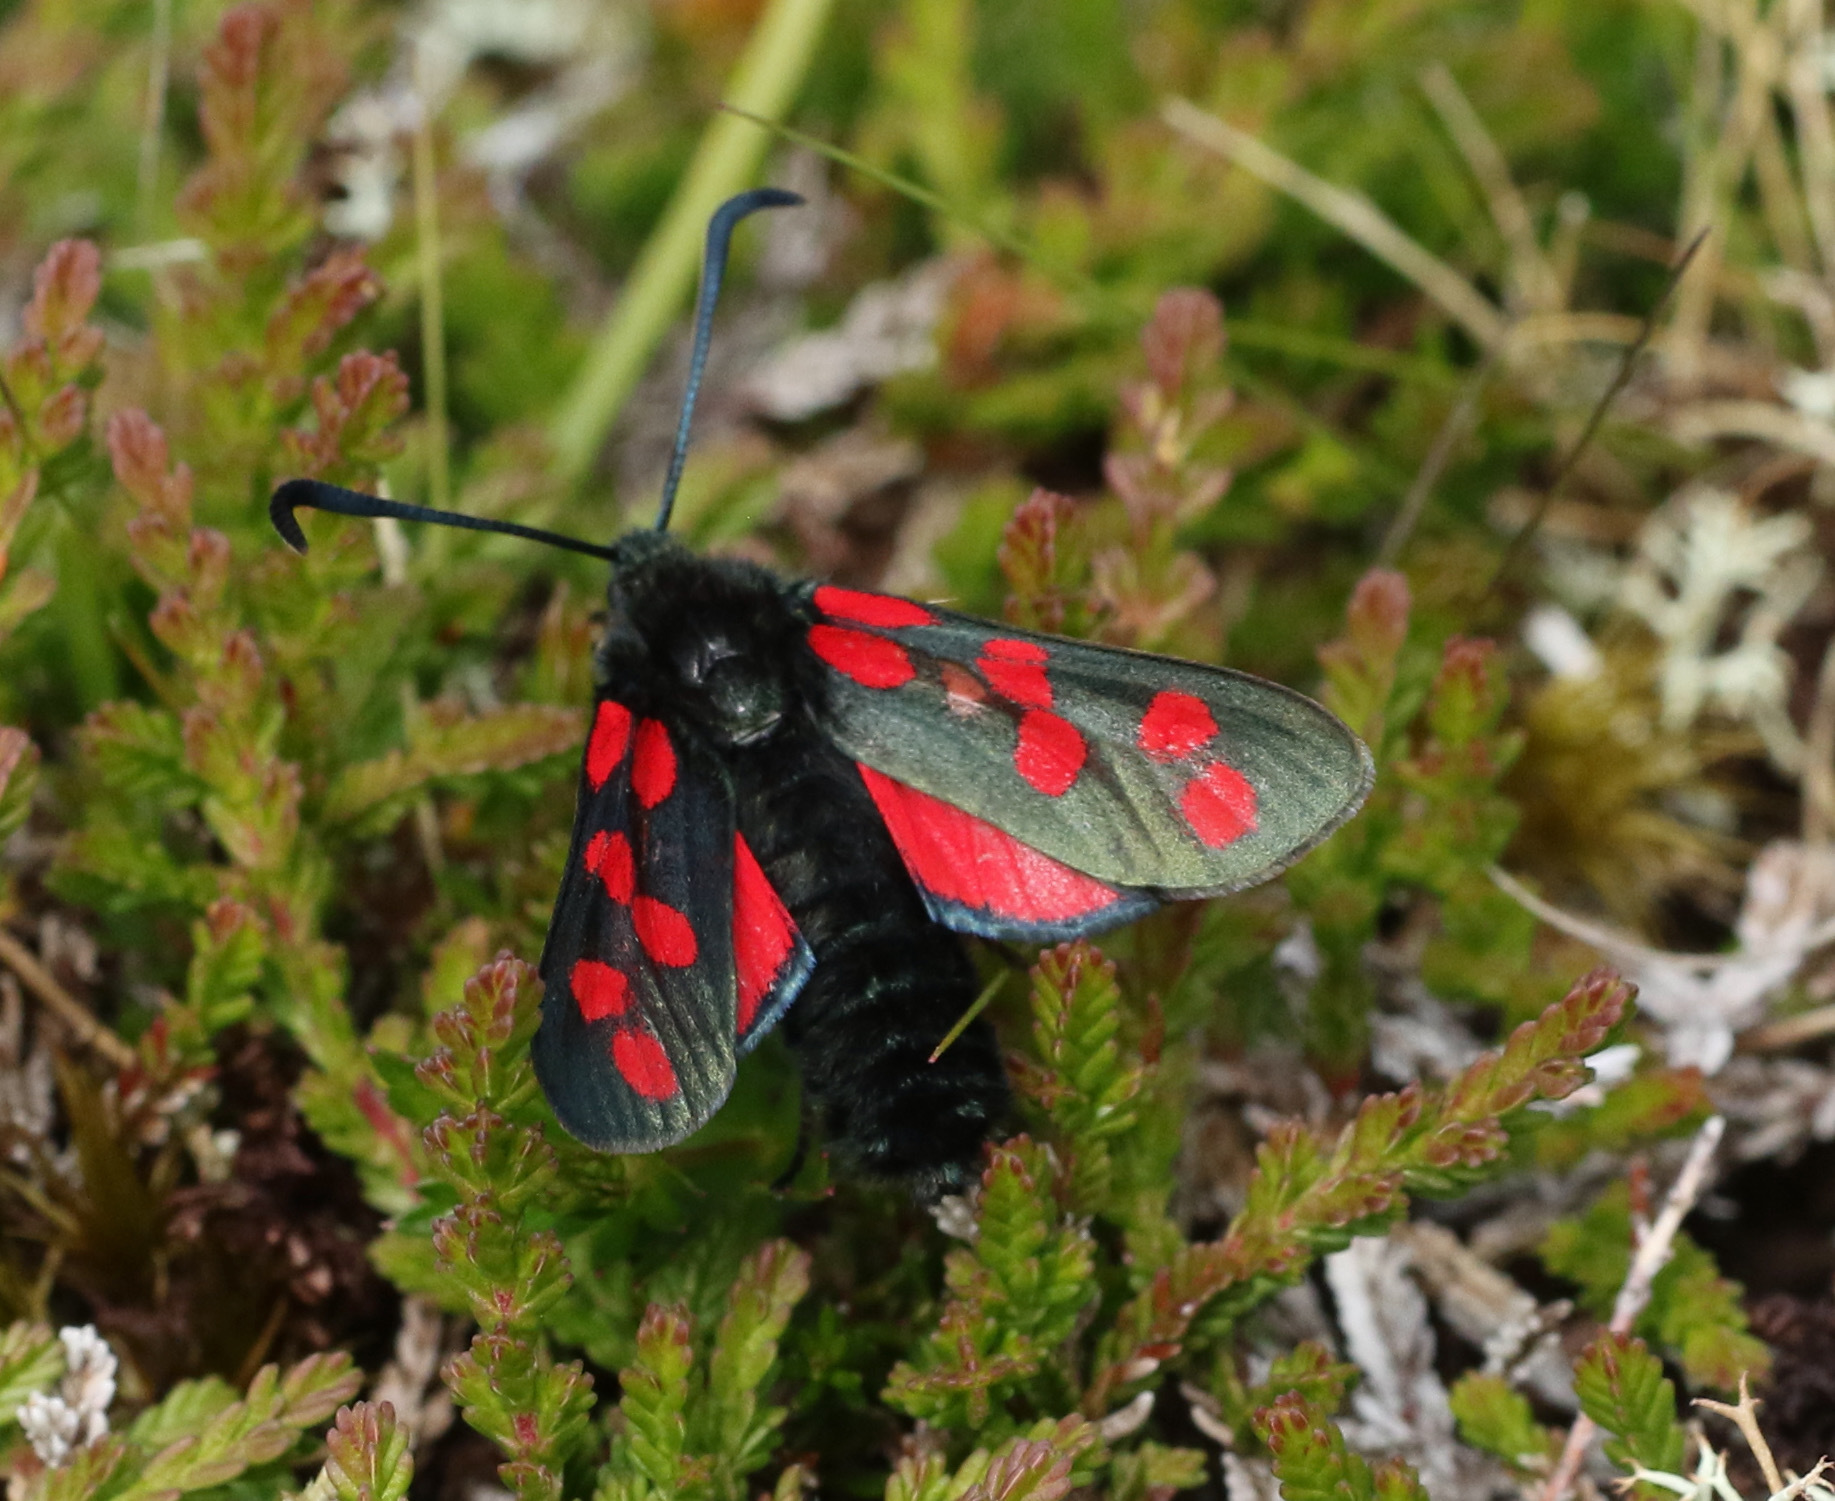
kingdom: Animalia
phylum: Arthropoda
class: Insecta
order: Lepidoptera
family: Zygaenidae
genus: Zygaena
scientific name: Zygaena filipendulae
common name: Six-spot burnet
